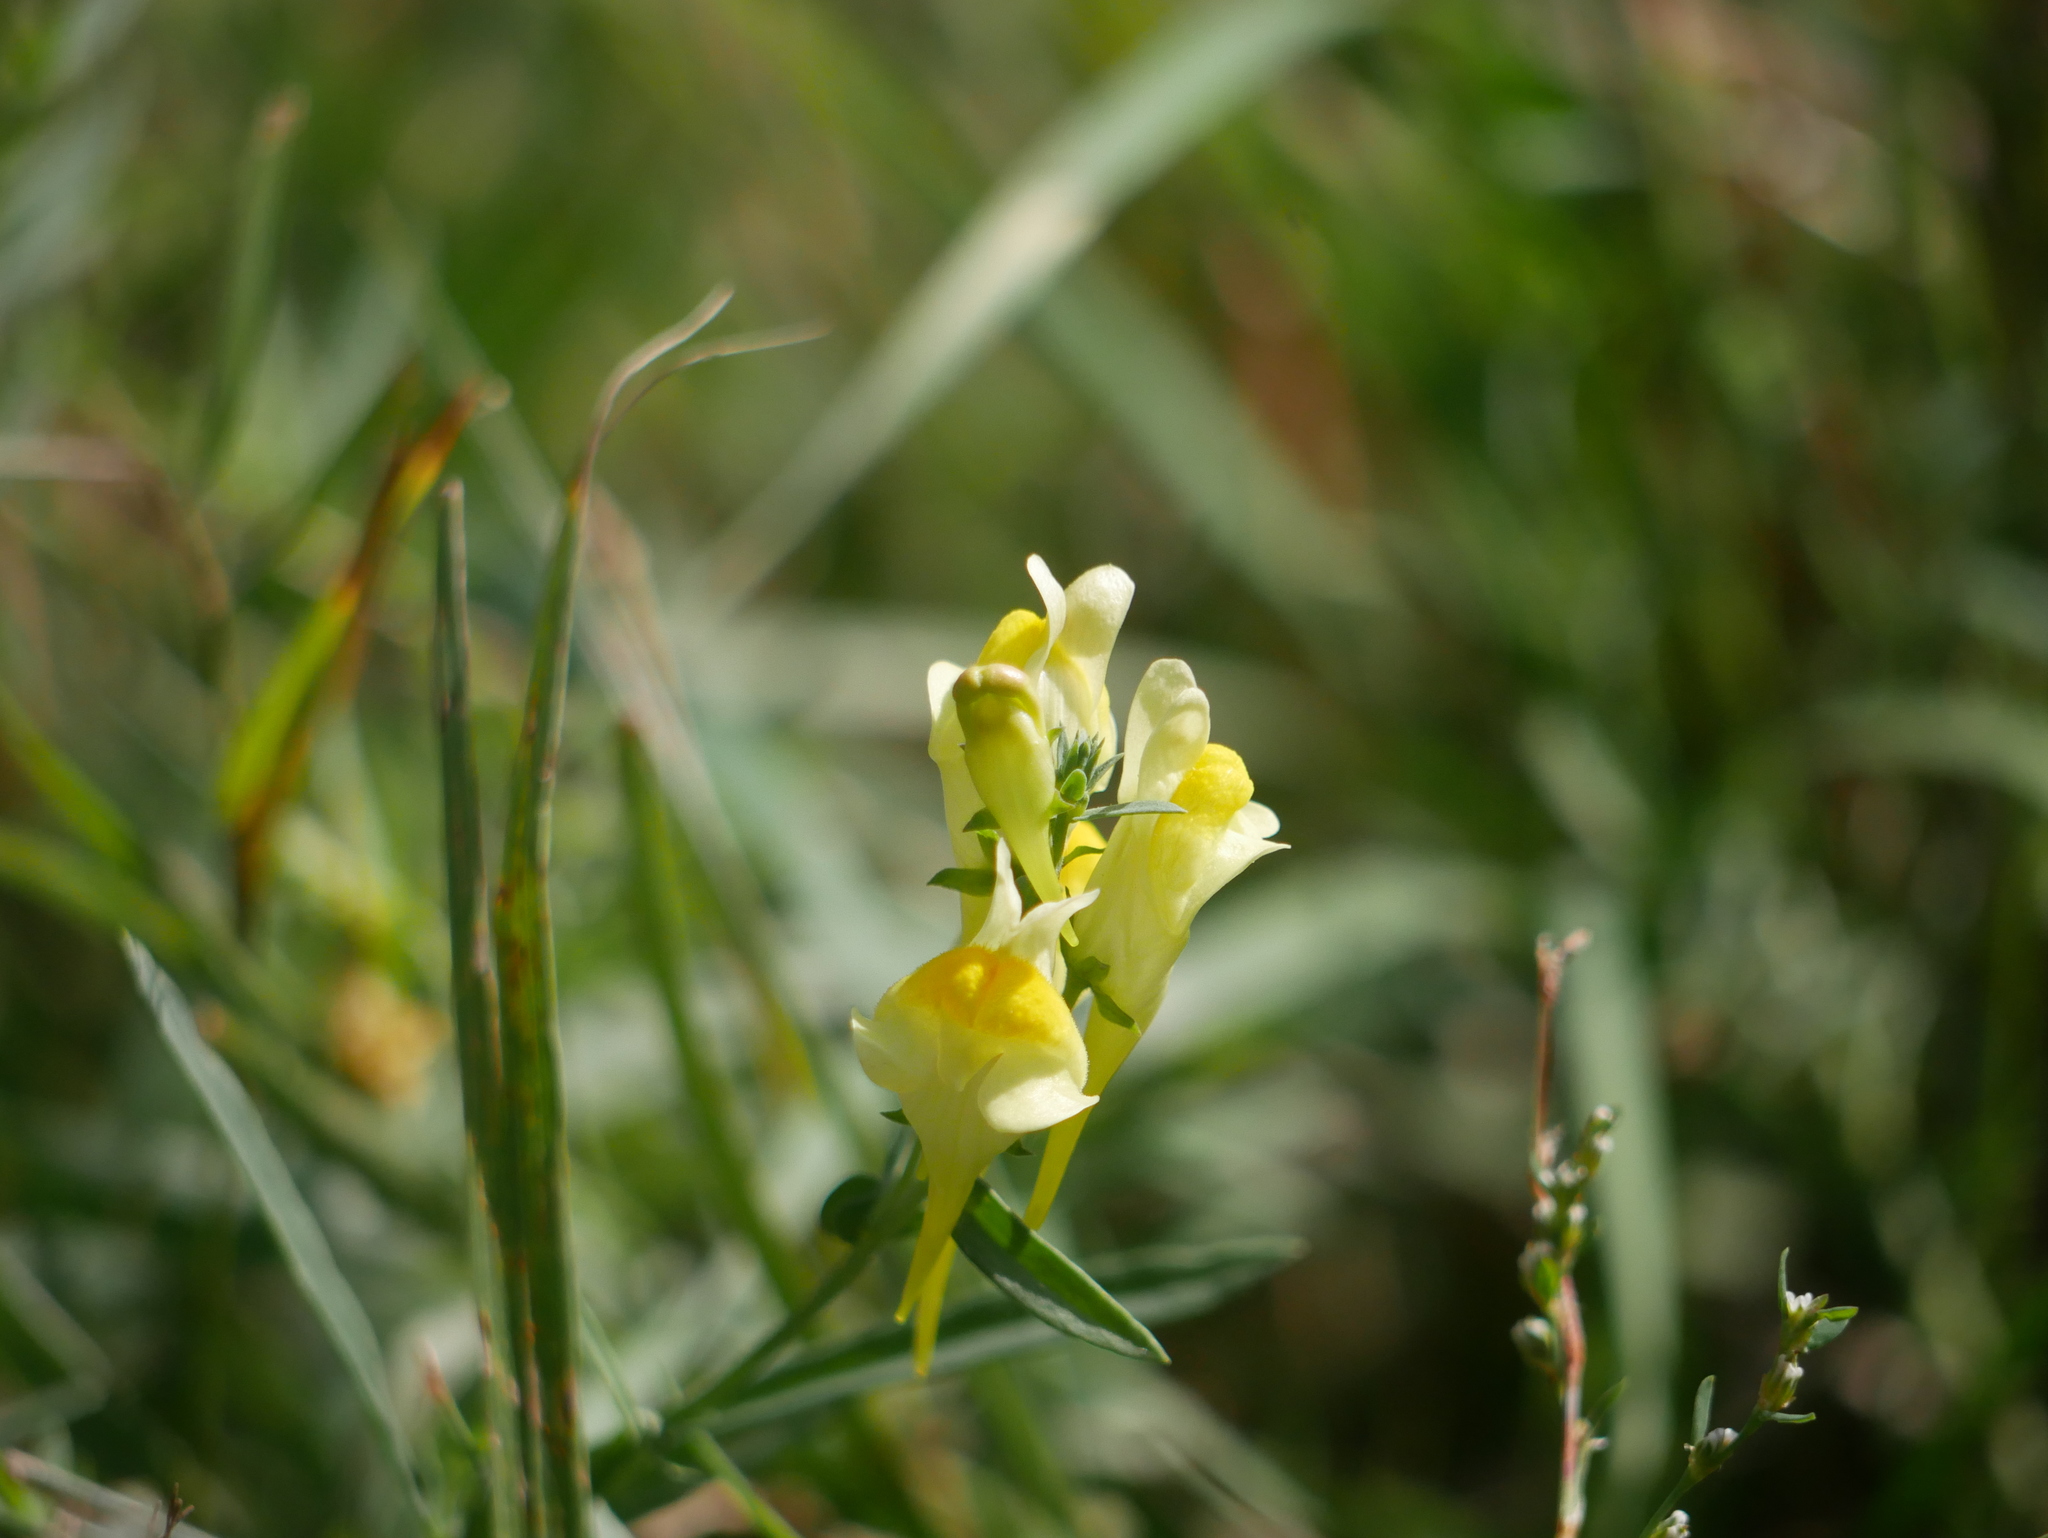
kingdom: Plantae
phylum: Tracheophyta
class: Magnoliopsida
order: Lamiales
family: Plantaginaceae
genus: Linaria
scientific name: Linaria vulgaris
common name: Butter and eggs
